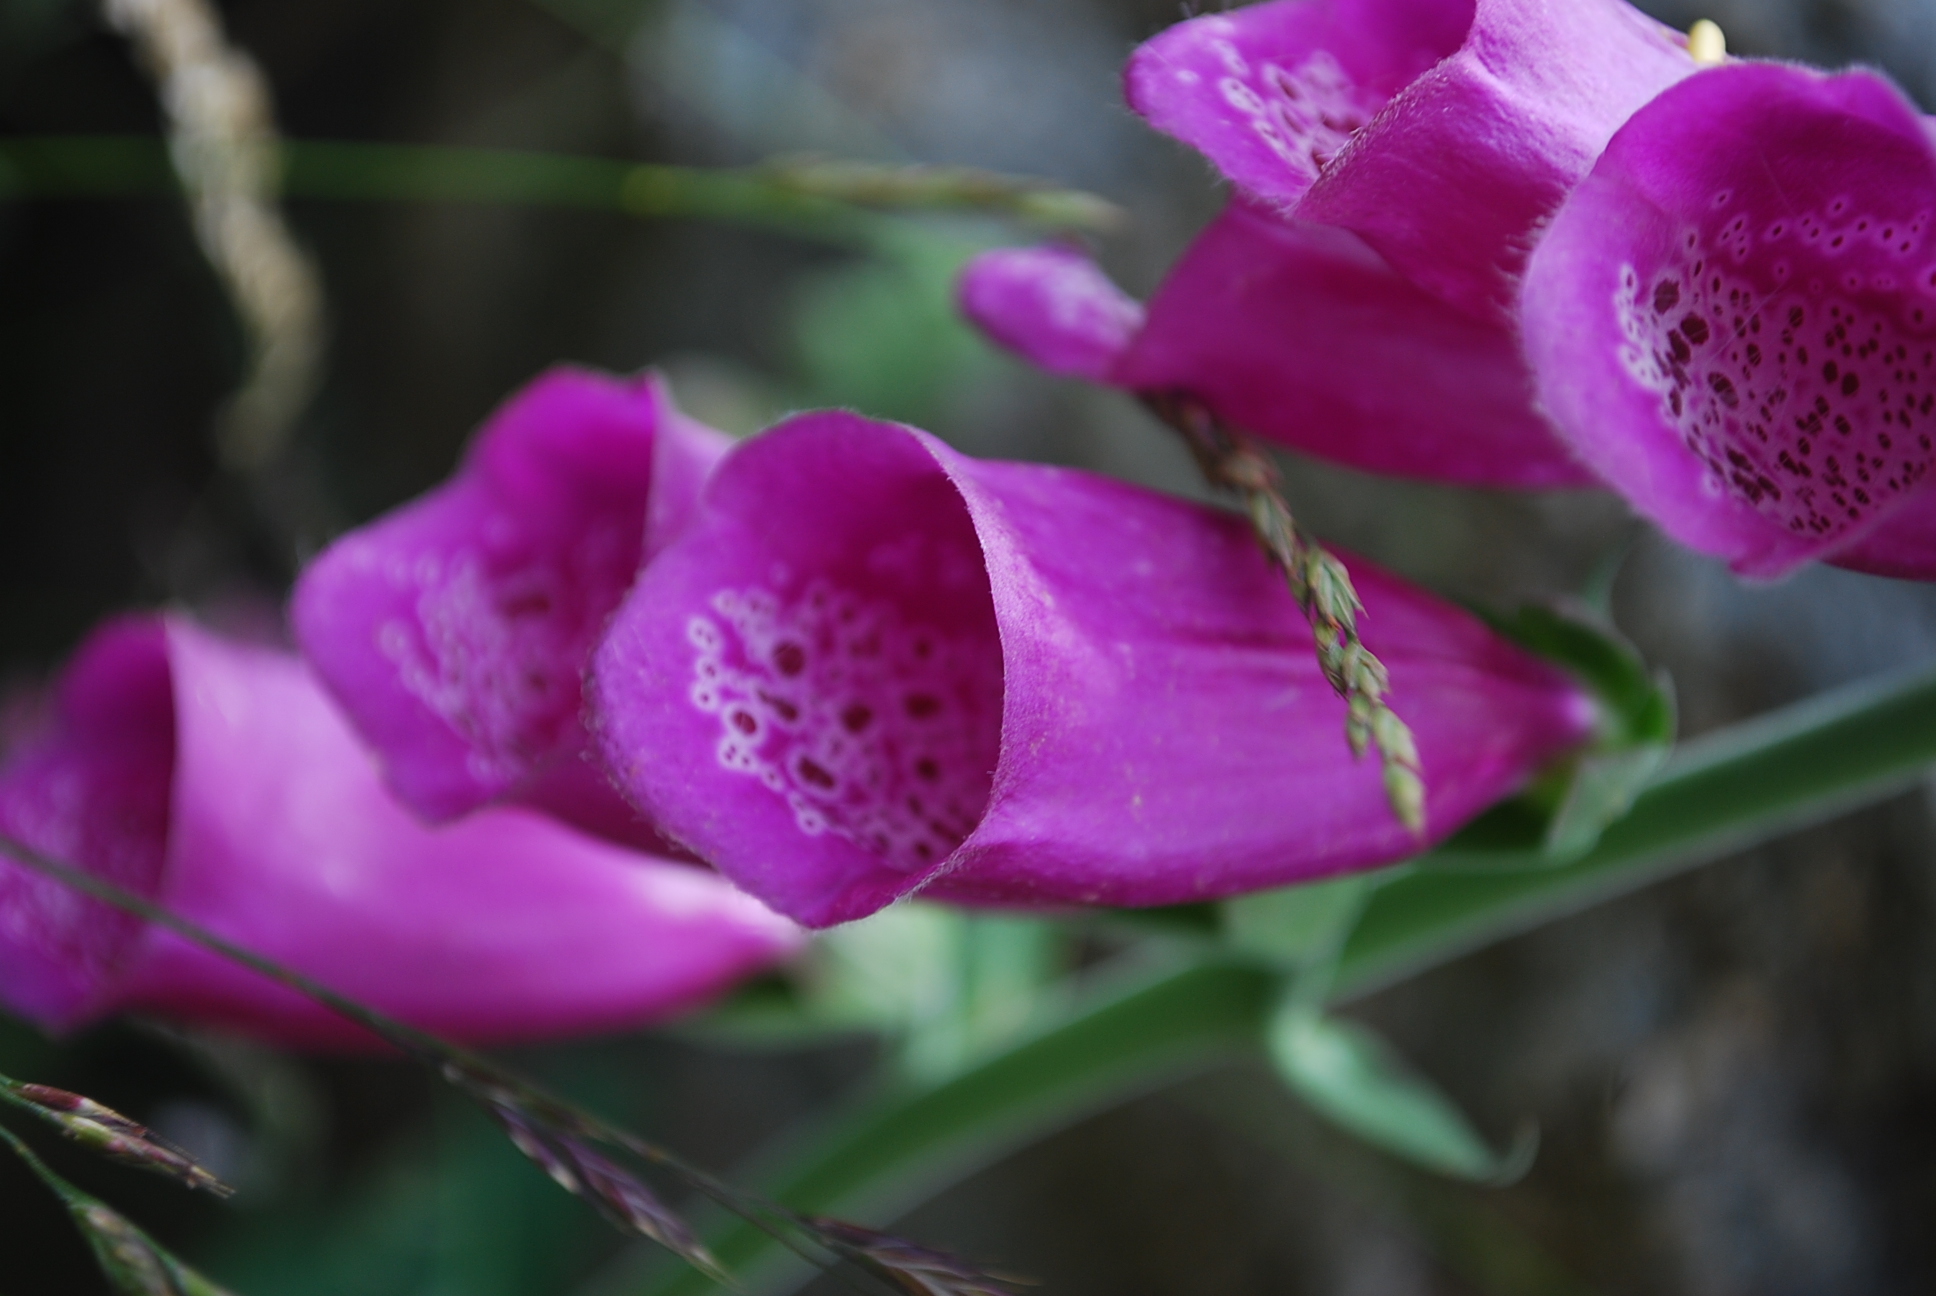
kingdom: Plantae
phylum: Tracheophyta
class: Magnoliopsida
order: Lamiales
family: Plantaginaceae
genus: Digitalis
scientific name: Digitalis purpurea
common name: Foxglove
